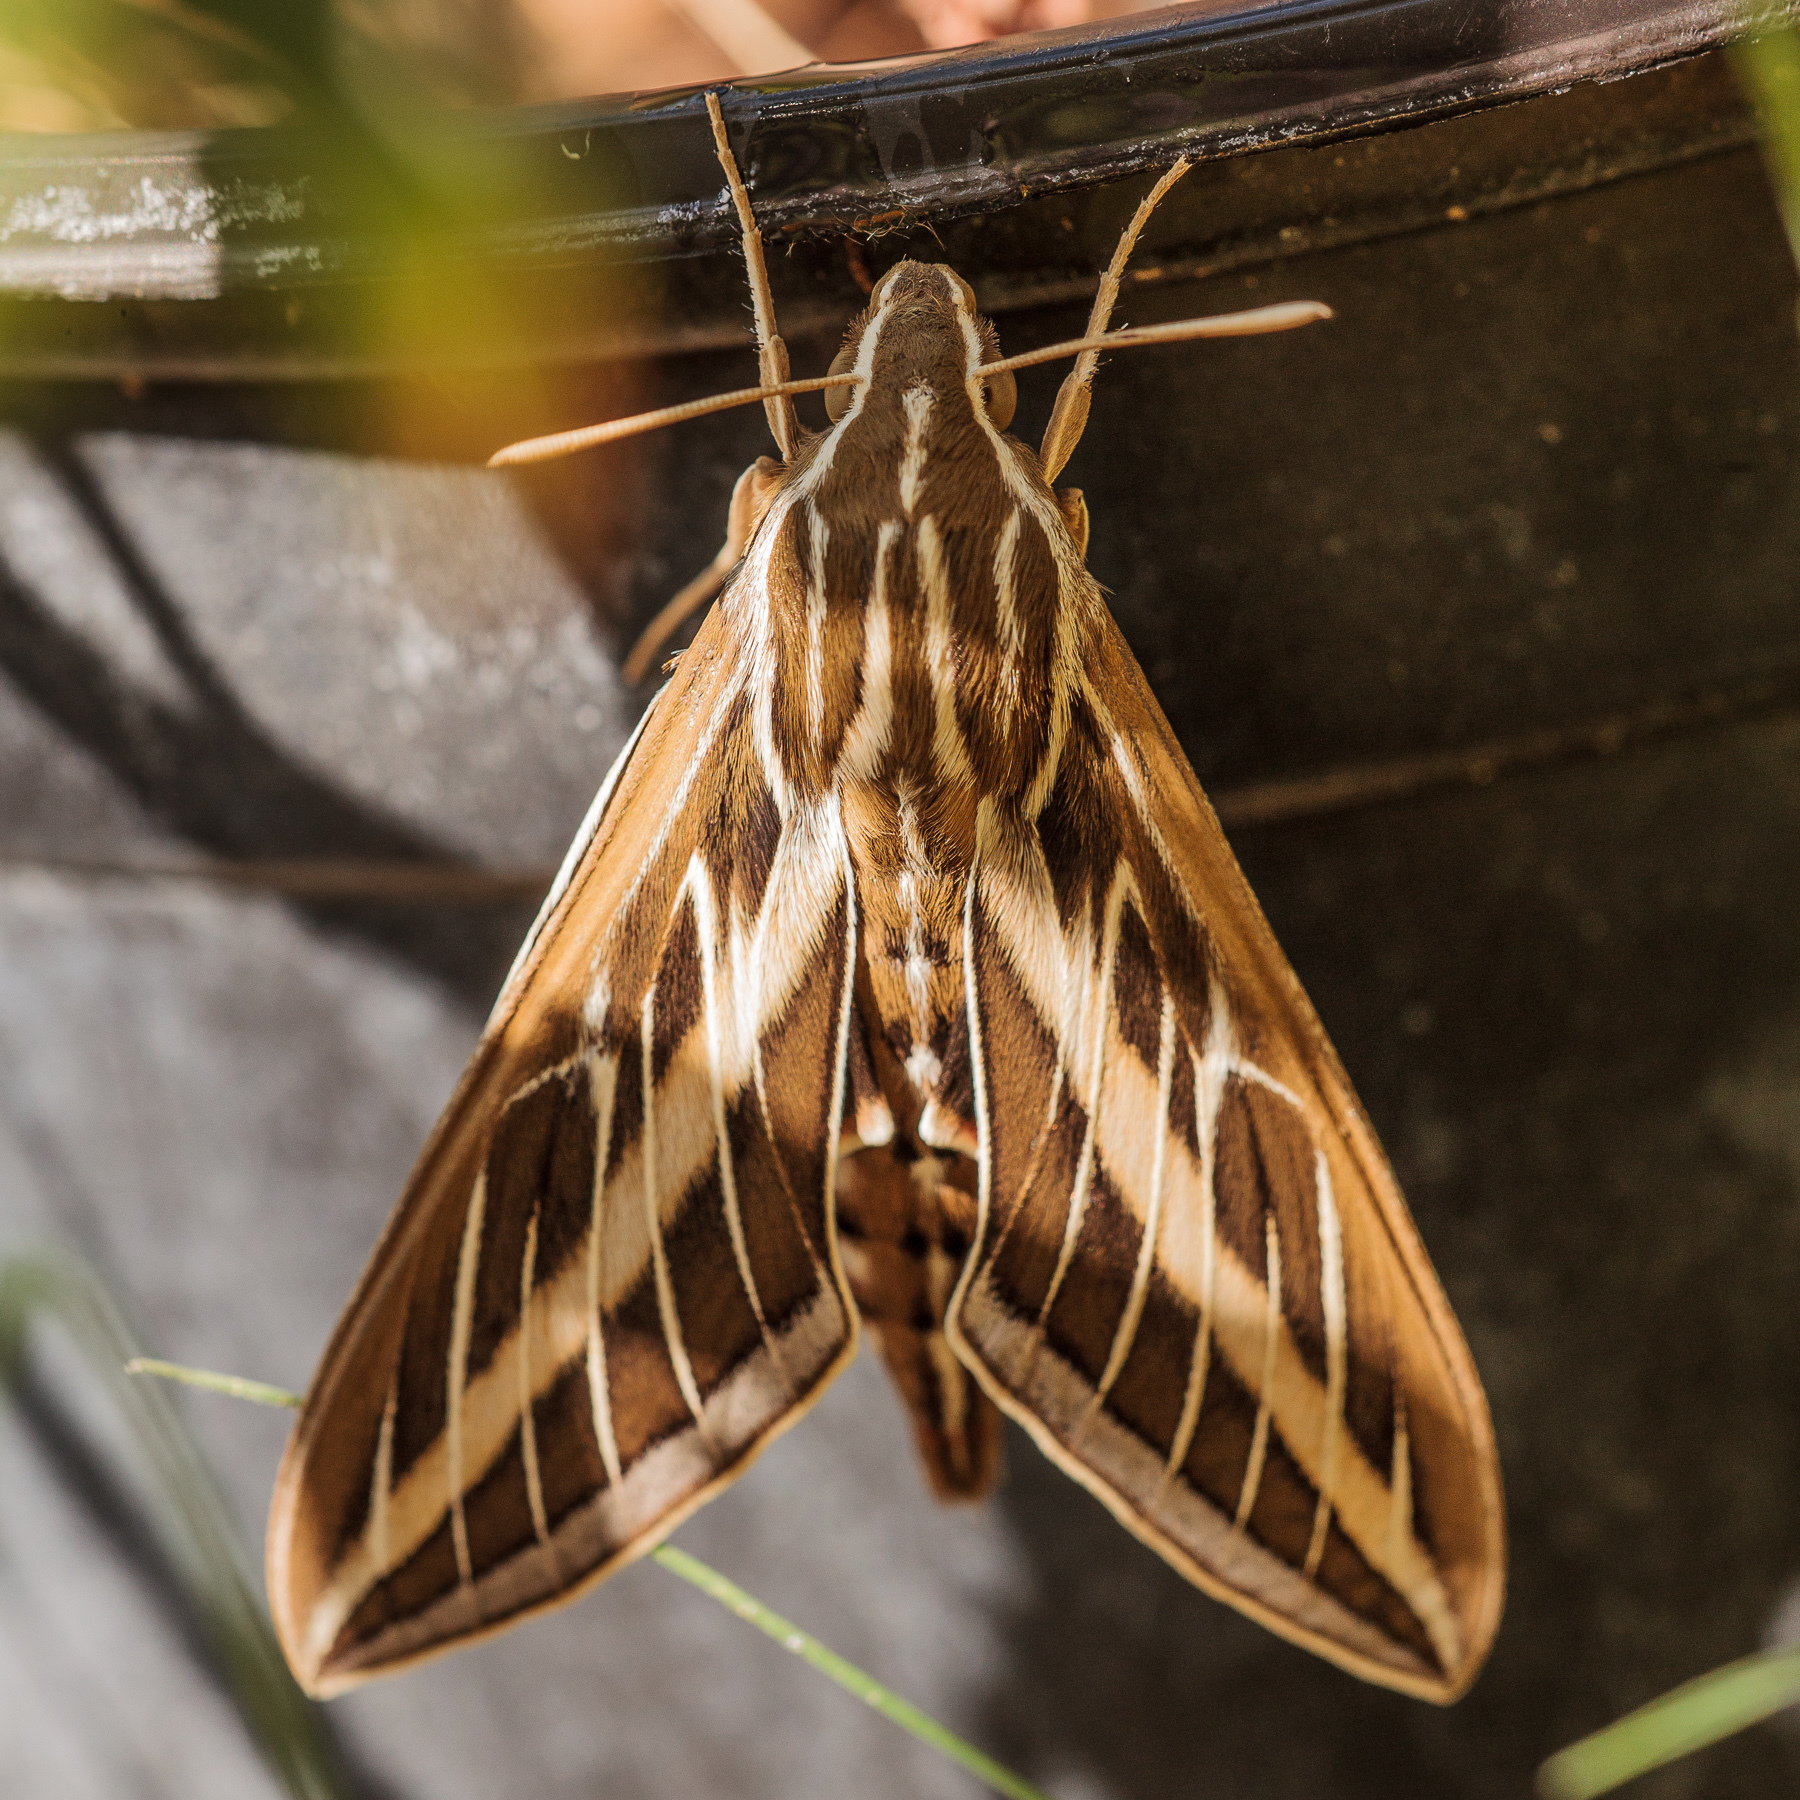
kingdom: Animalia
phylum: Arthropoda
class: Insecta
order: Lepidoptera
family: Sphingidae
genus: Hyles
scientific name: Hyles lineata
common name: White-lined sphinx
